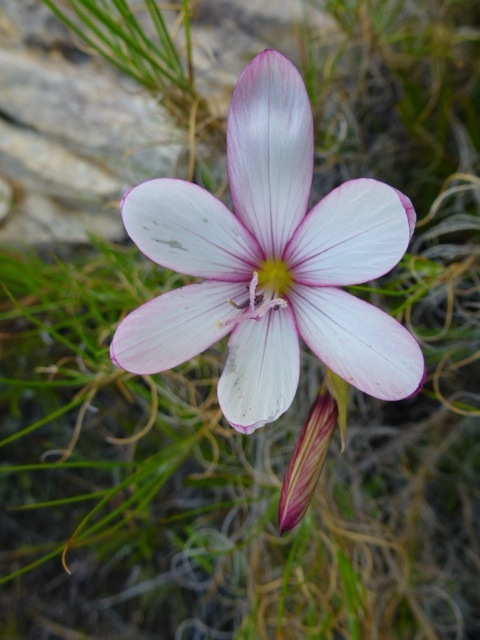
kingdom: Plantae
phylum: Tracheophyta
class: Liliopsida
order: Asparagales
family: Iridaceae
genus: Geissorhiza
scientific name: Geissorhiza fourcadei
